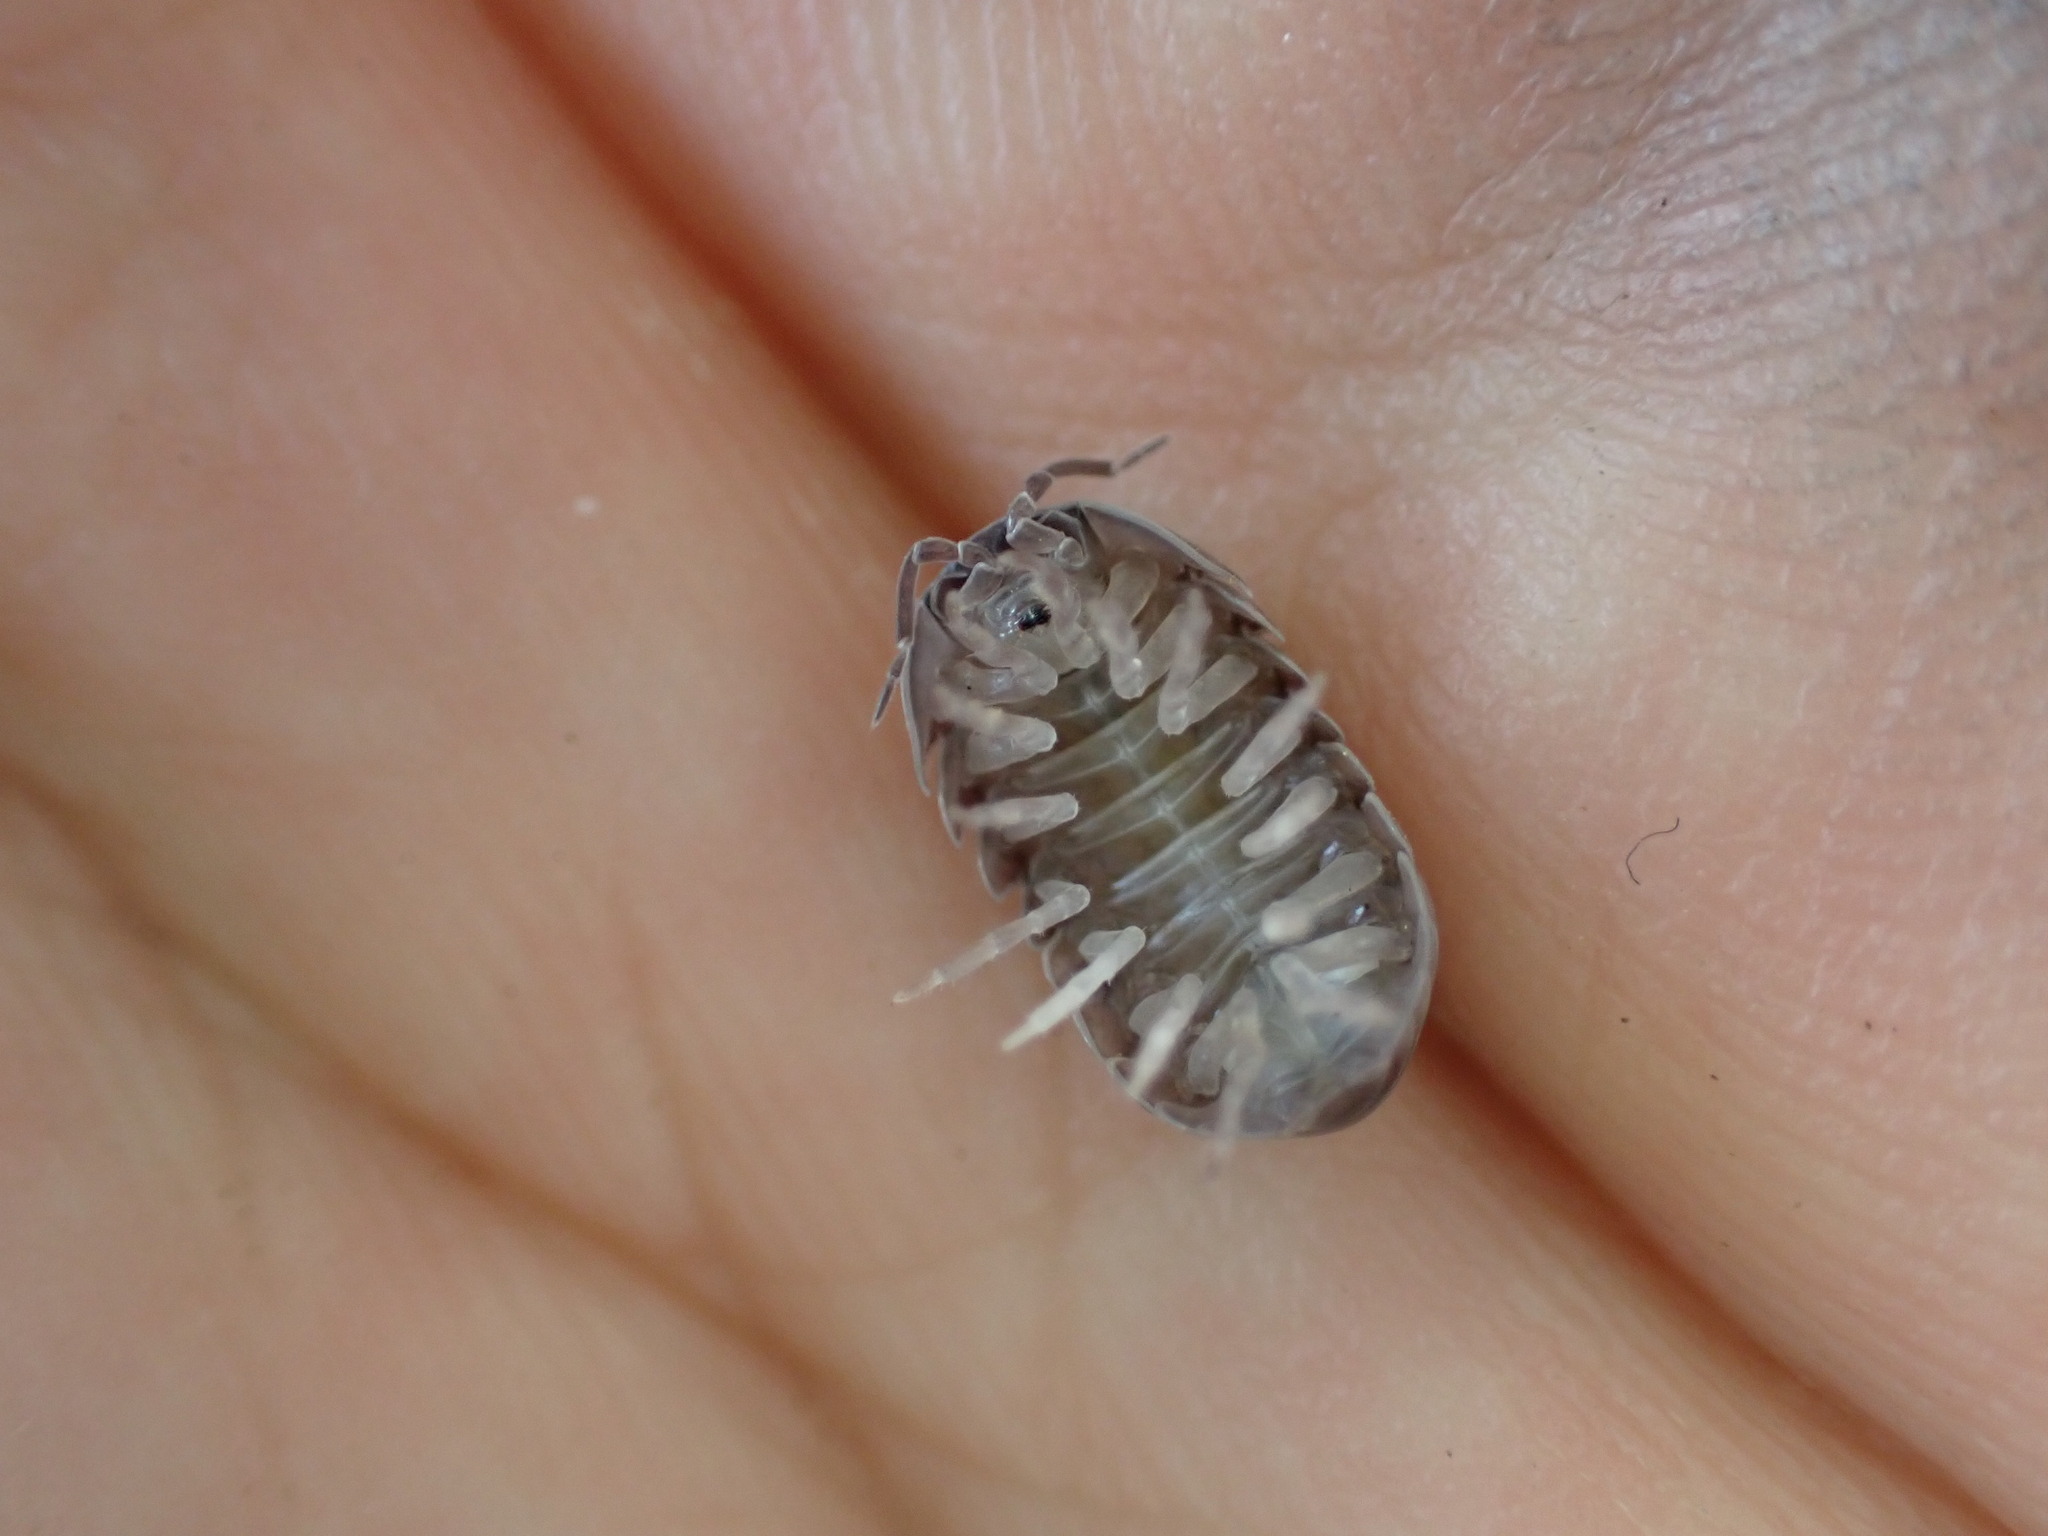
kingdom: Animalia
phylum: Arthropoda
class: Malacostraca
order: Isopoda
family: Armadillidiidae
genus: Armadillidium
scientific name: Armadillidium vulgare
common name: Common pill woodlouse
